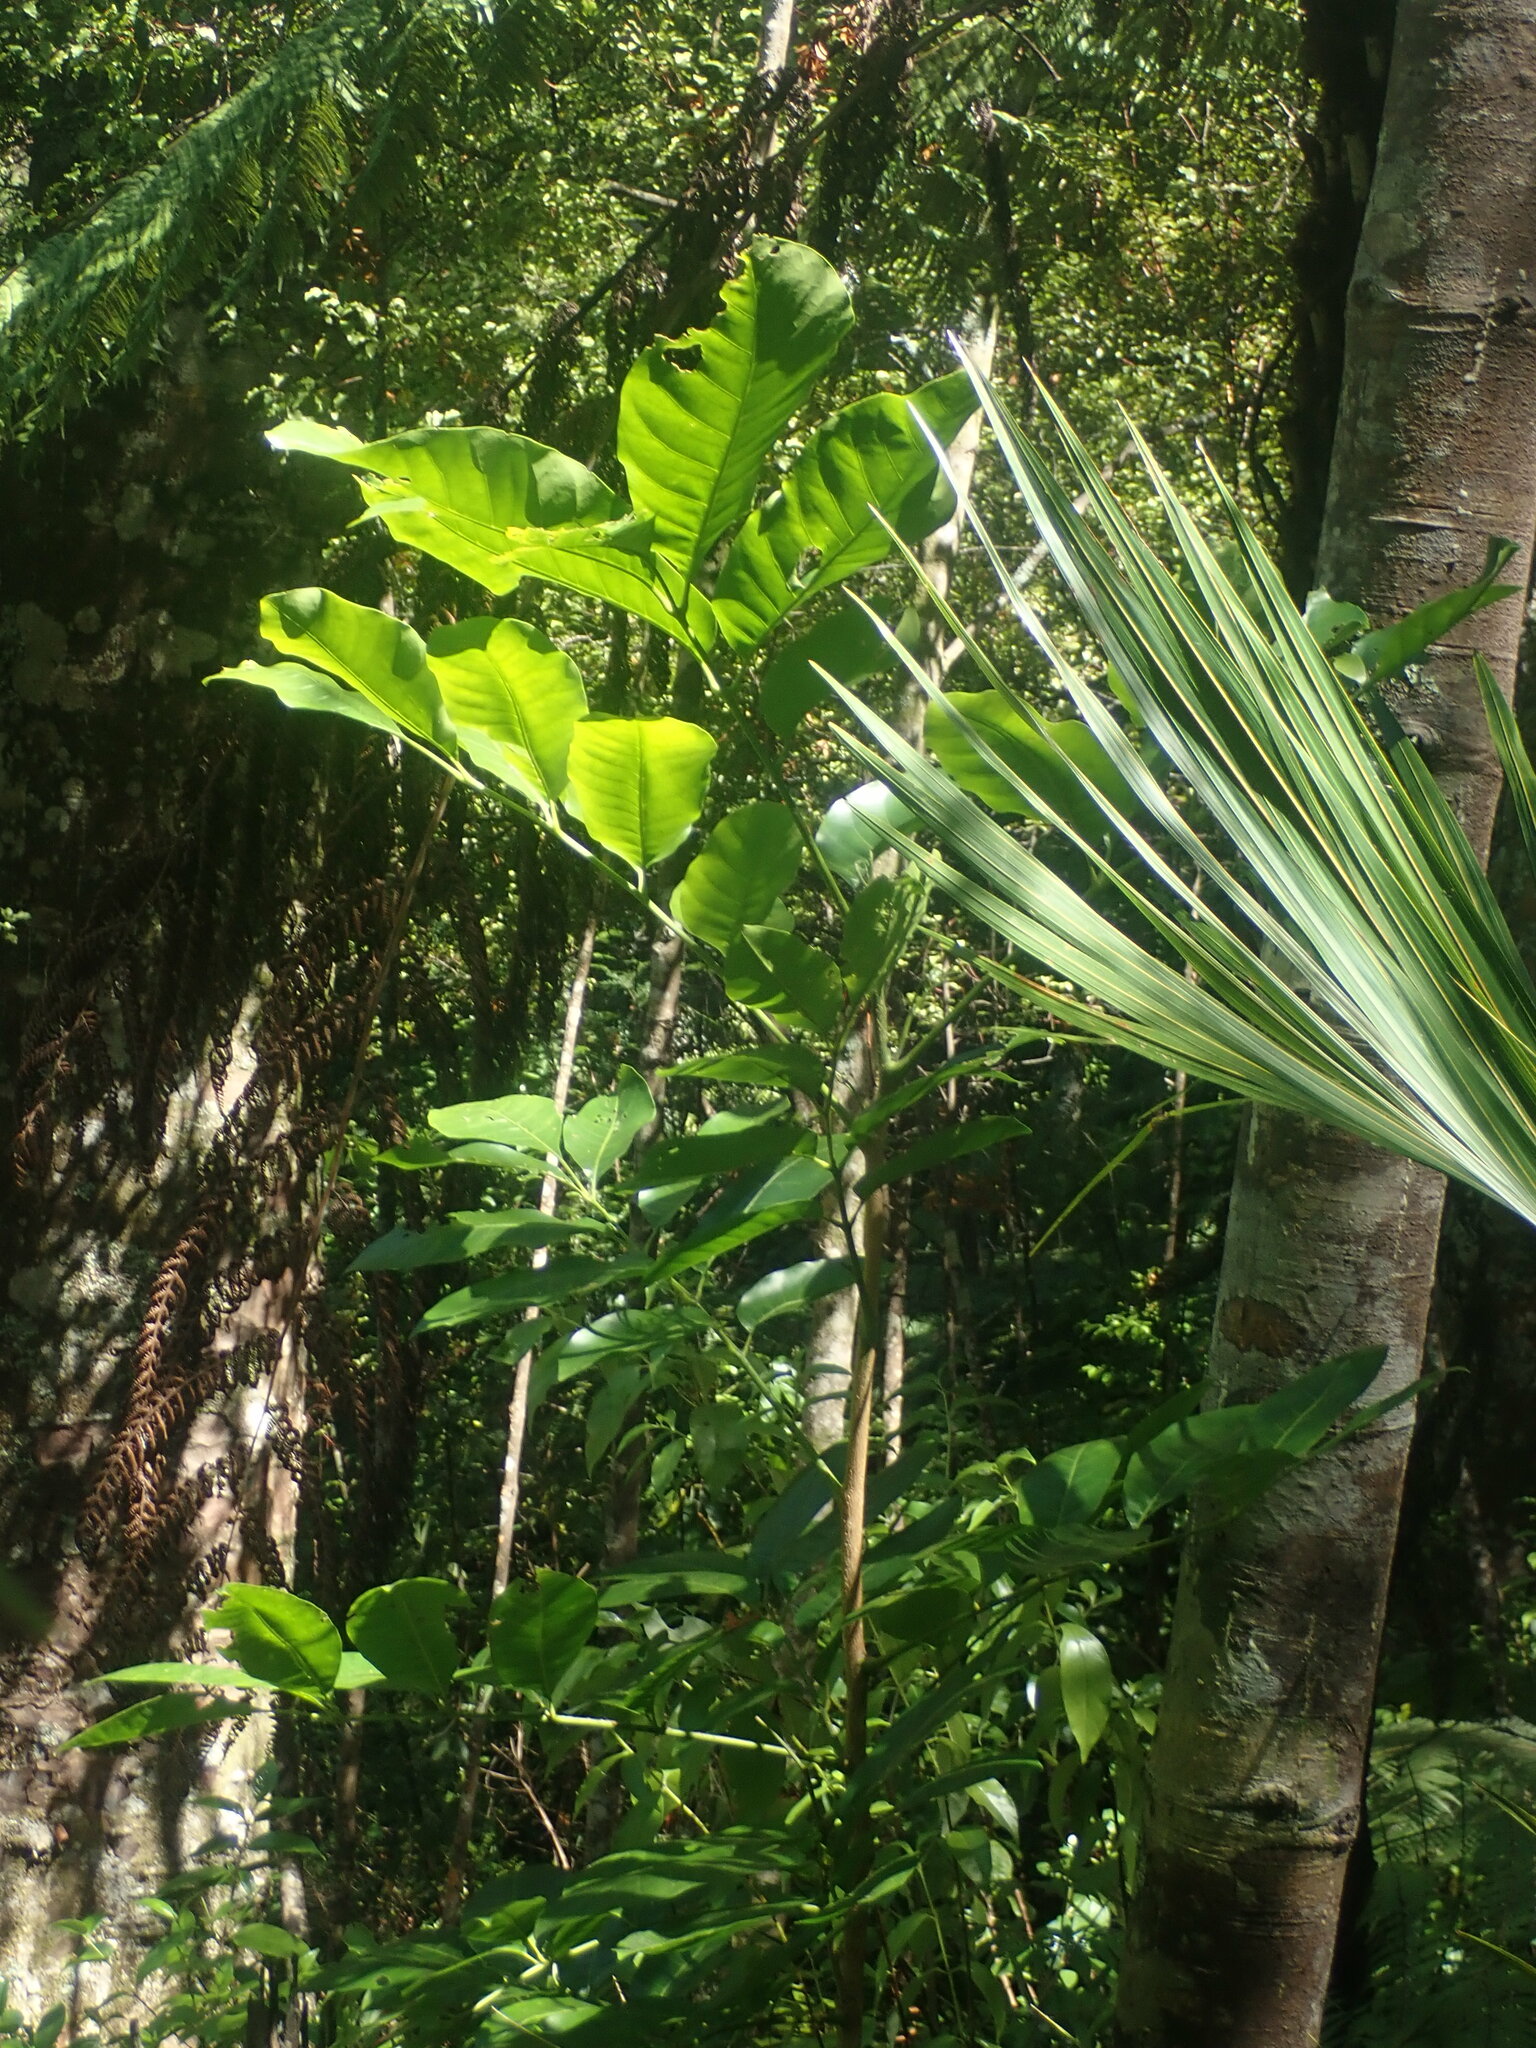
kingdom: Plantae
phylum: Tracheophyta
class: Magnoliopsida
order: Sapindales
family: Meliaceae
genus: Didymocheton
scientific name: Didymocheton spectabilis
